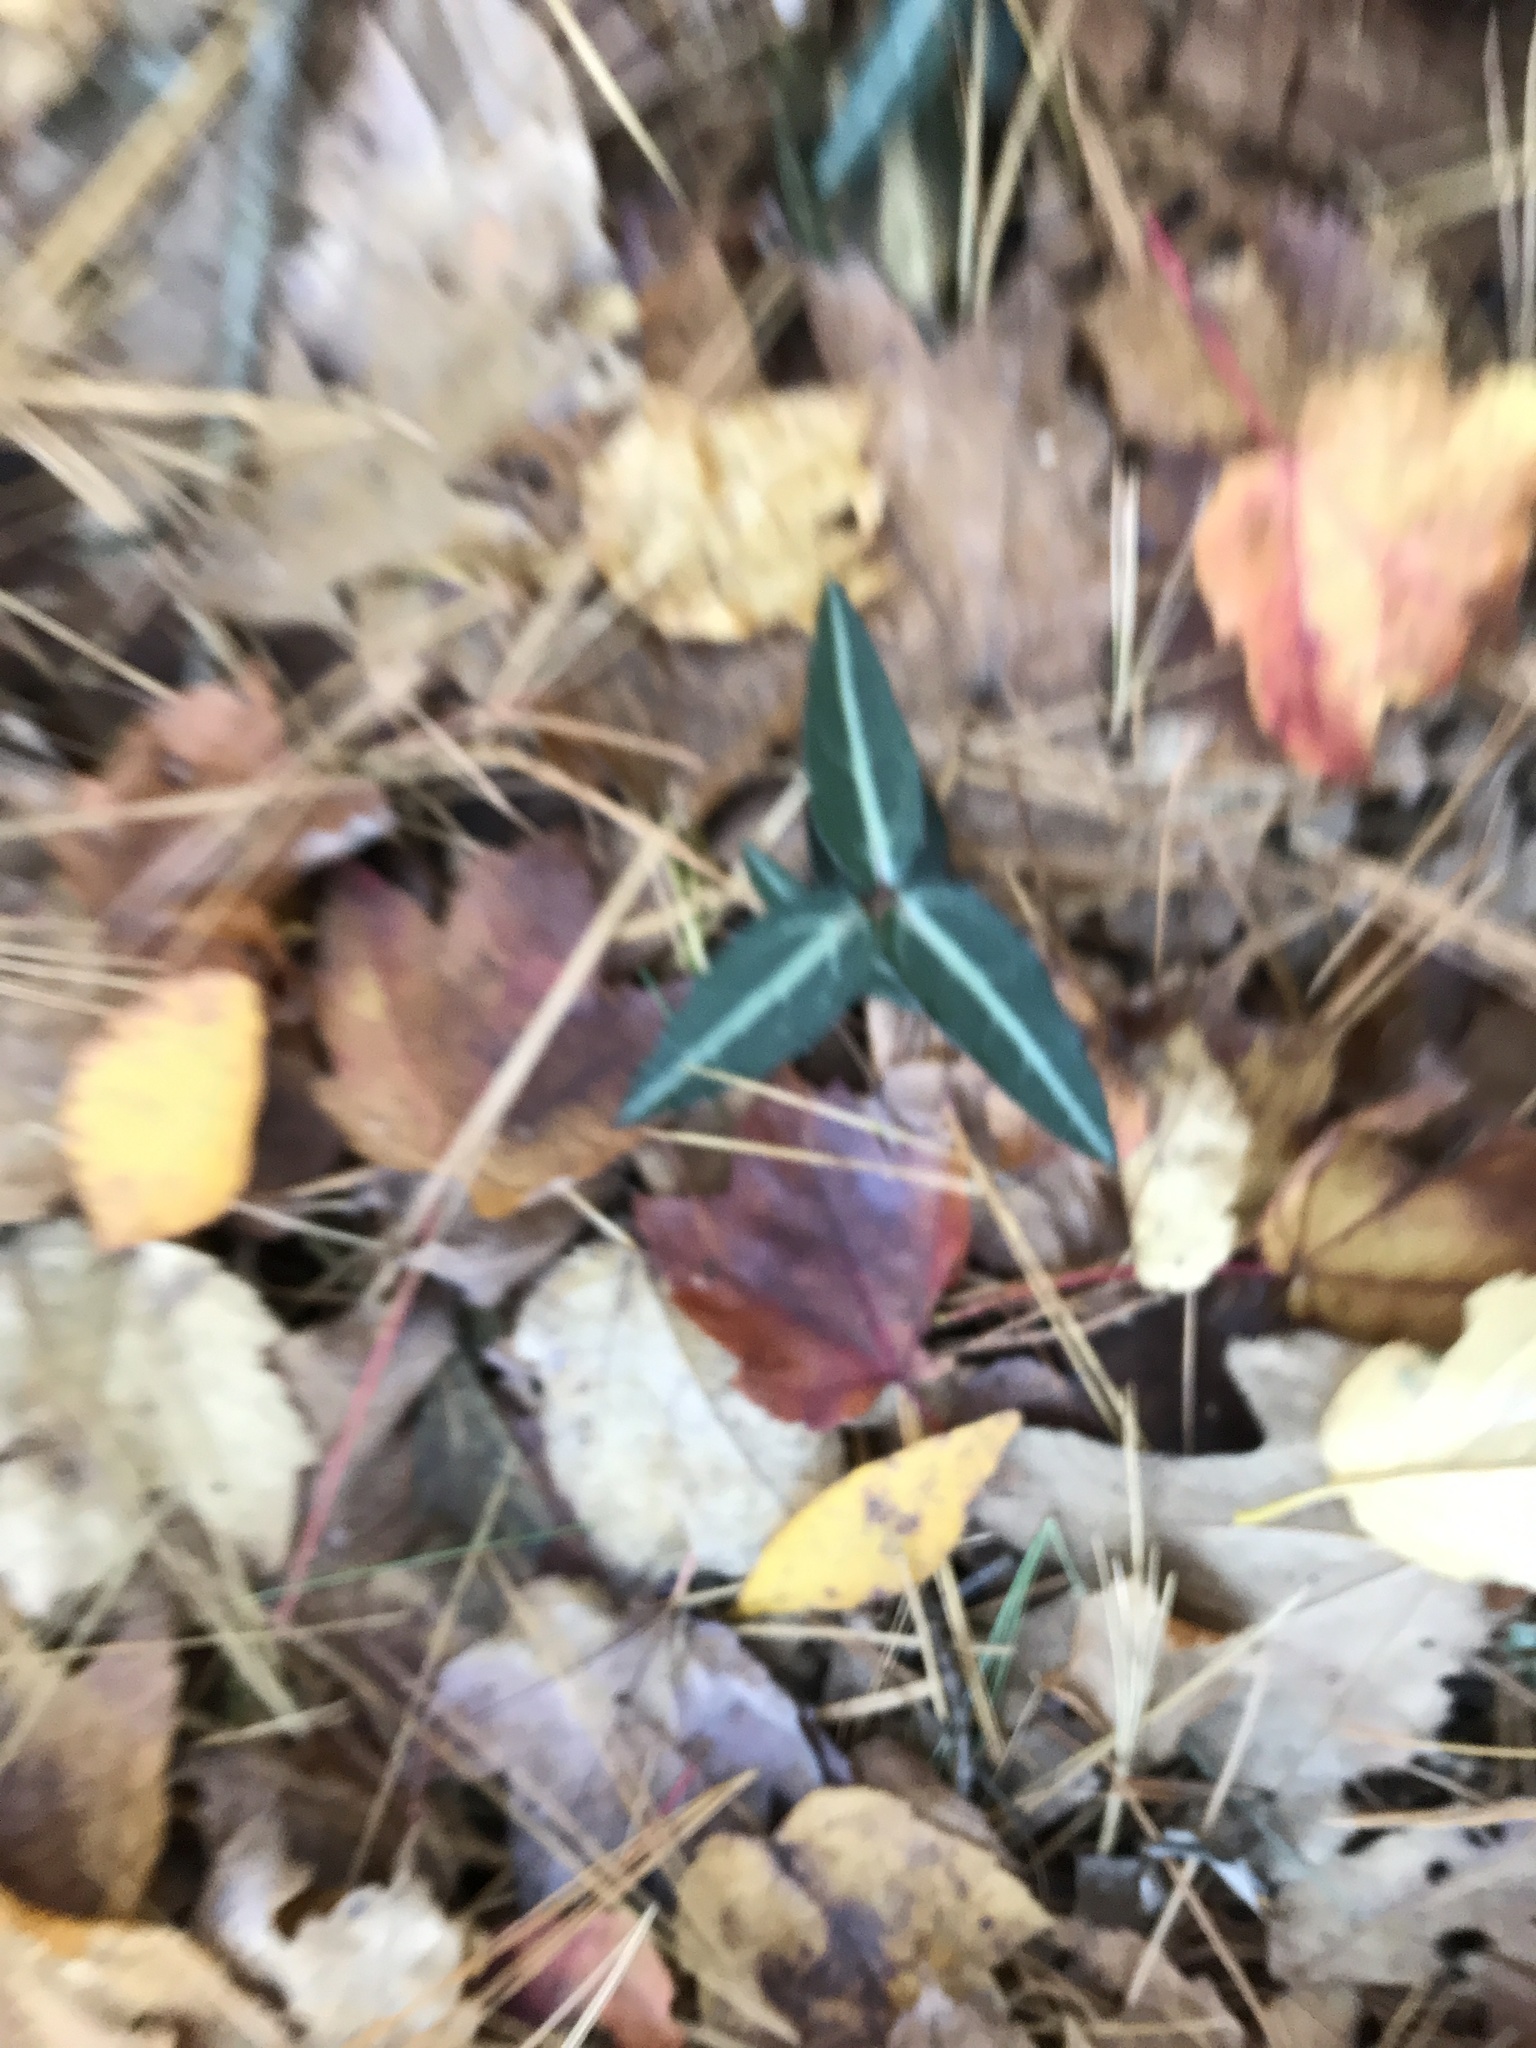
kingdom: Plantae
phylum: Tracheophyta
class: Magnoliopsida
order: Ericales
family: Ericaceae
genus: Chimaphila
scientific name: Chimaphila maculata
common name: Spotted pipsissewa
